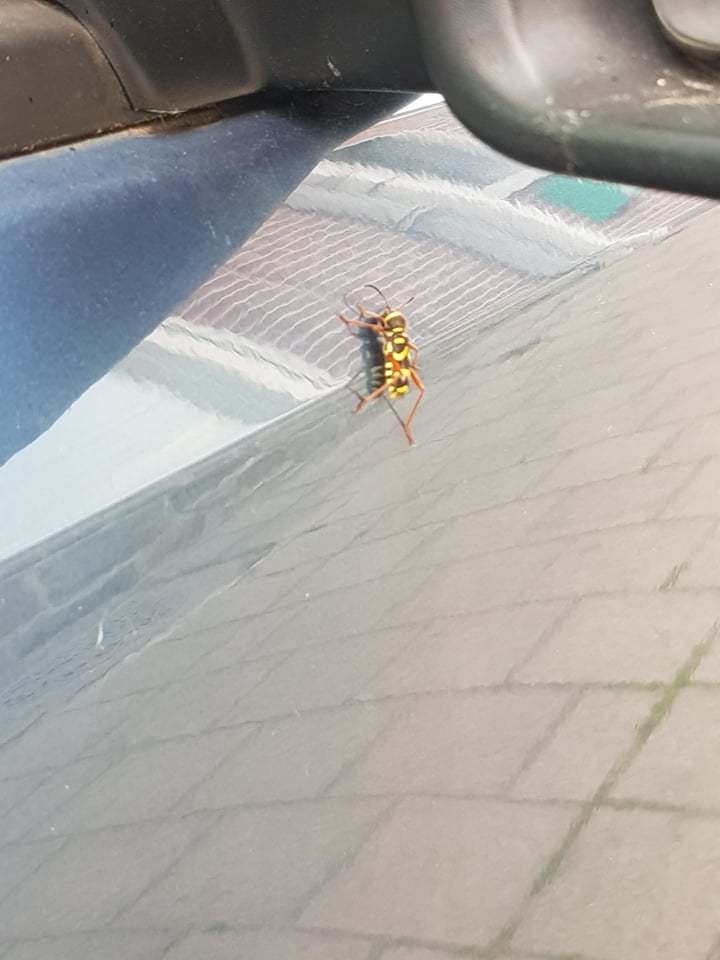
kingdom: Animalia
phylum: Arthropoda
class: Insecta
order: Coleoptera
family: Cerambycidae
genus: Clytus
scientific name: Clytus arietis
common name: Wasp beetle
